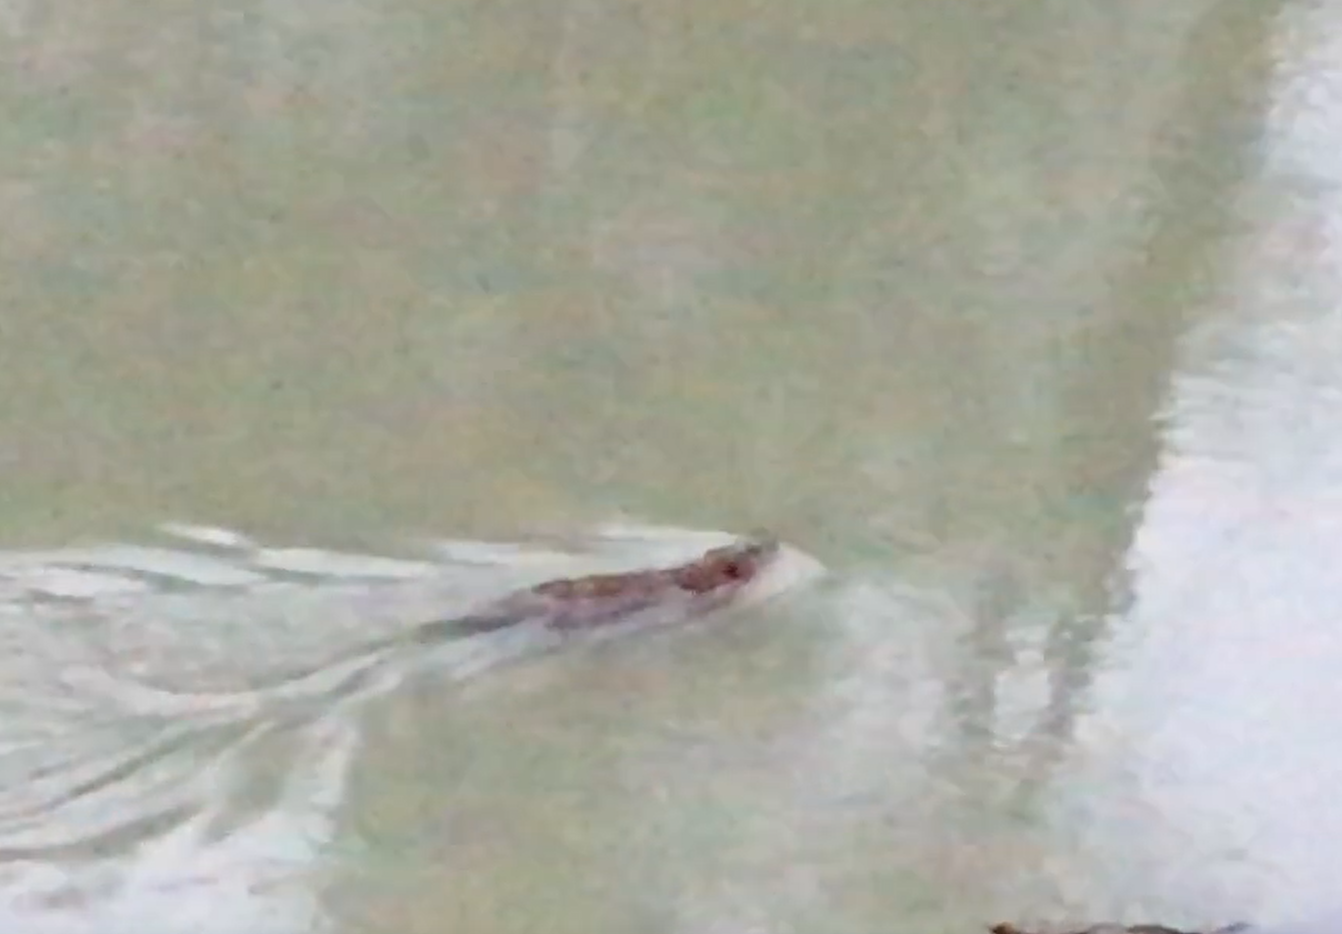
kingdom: Animalia
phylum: Chordata
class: Mammalia
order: Rodentia
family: Castoridae
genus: Castor
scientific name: Castor canadensis
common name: American beaver
